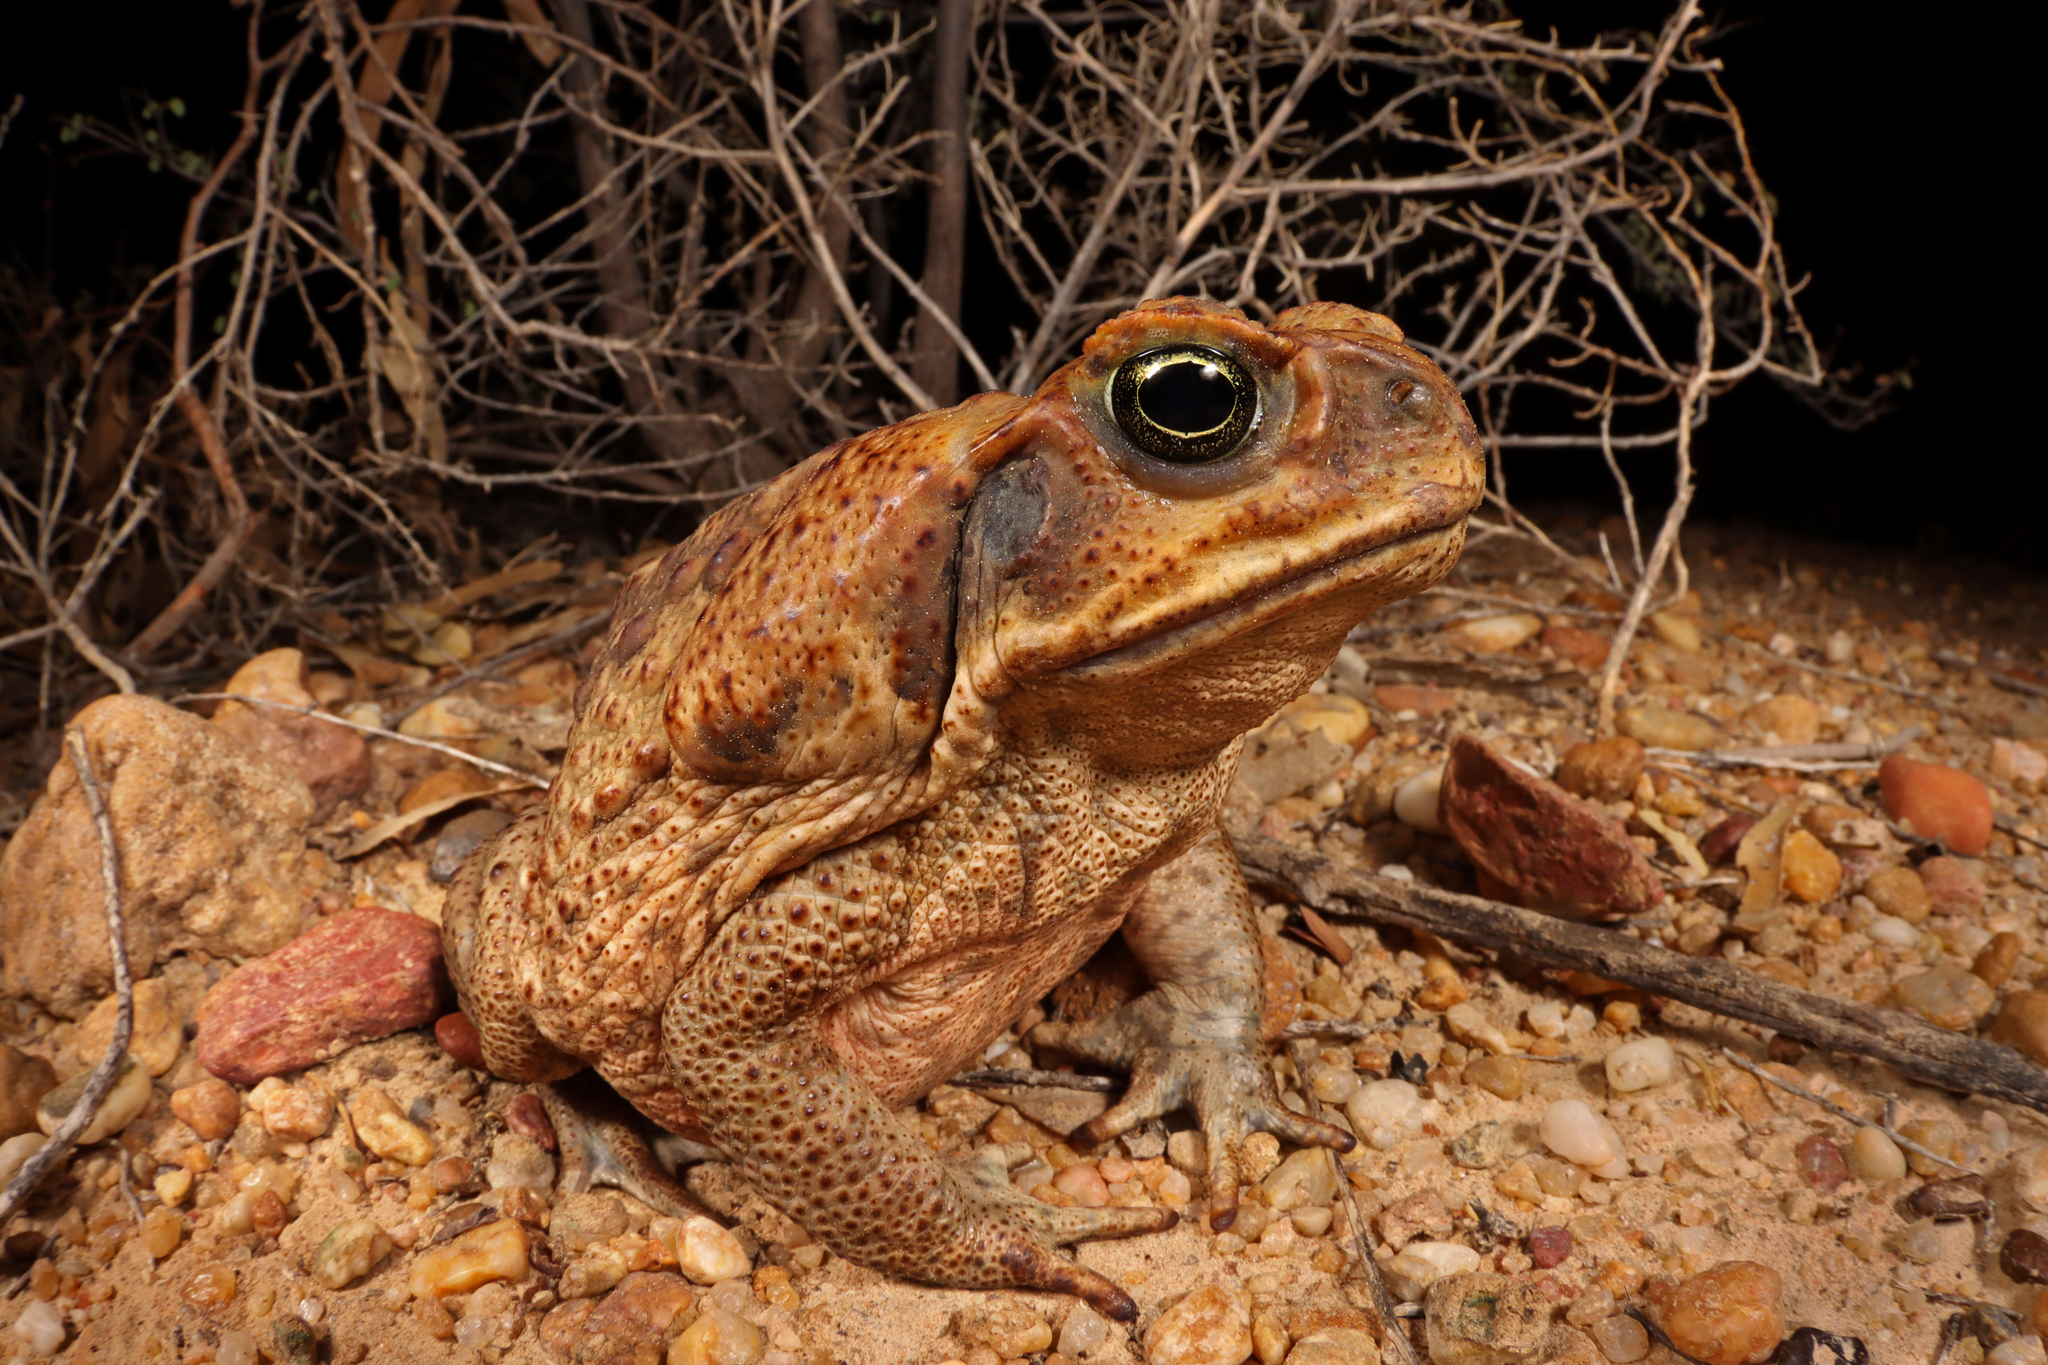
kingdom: Animalia
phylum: Chordata
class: Amphibia
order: Anura
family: Bufonidae
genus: Rhinella
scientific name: Rhinella marina
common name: Cane toad
